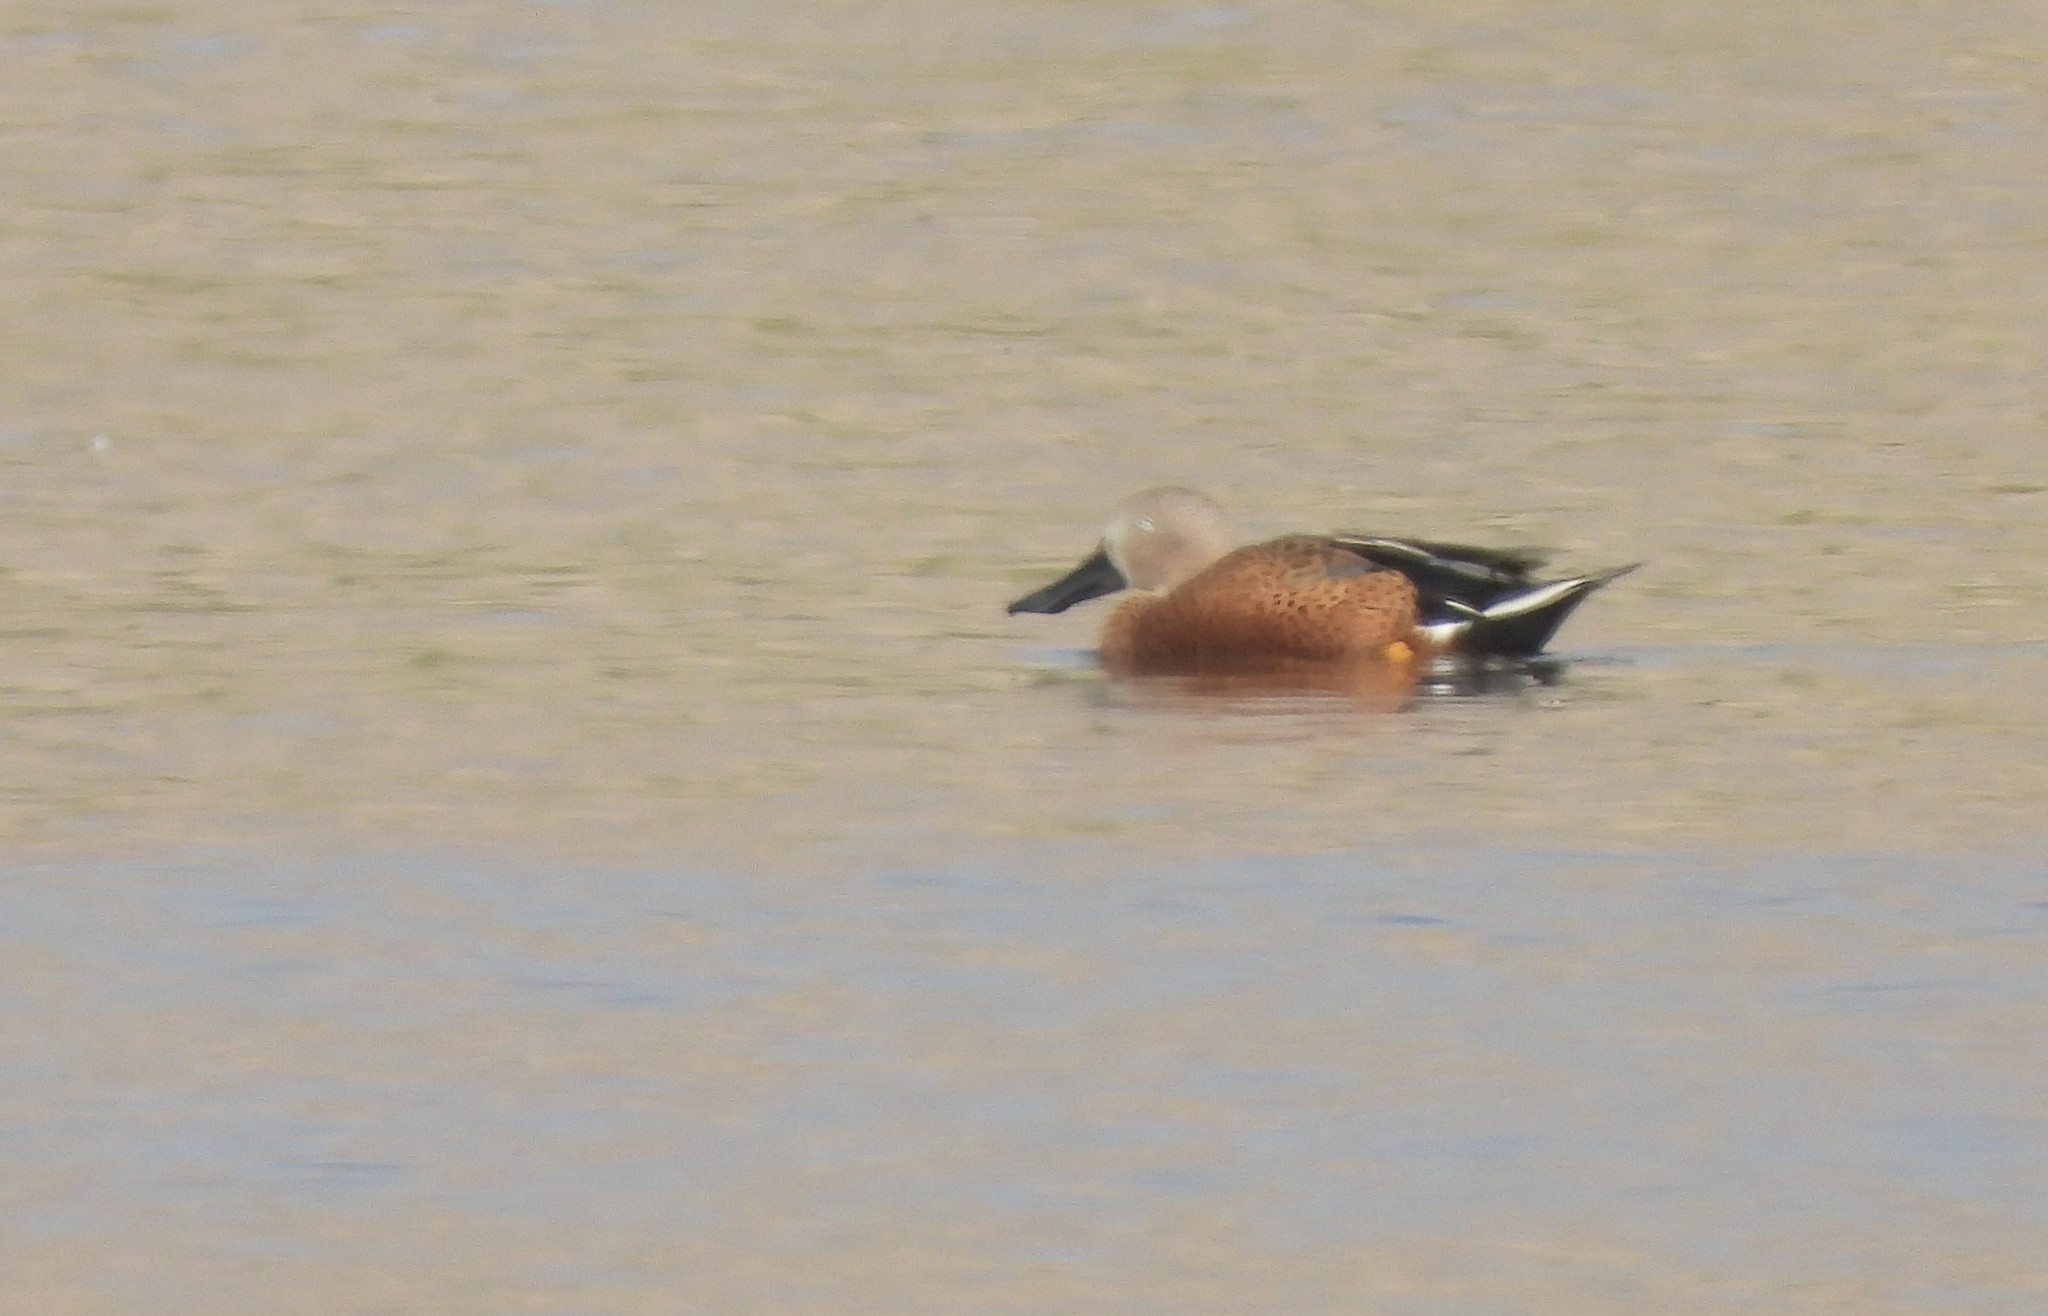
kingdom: Animalia
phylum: Chordata
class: Aves
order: Anseriformes
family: Anatidae
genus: Spatula
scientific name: Spatula platalea
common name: Red shoveler
